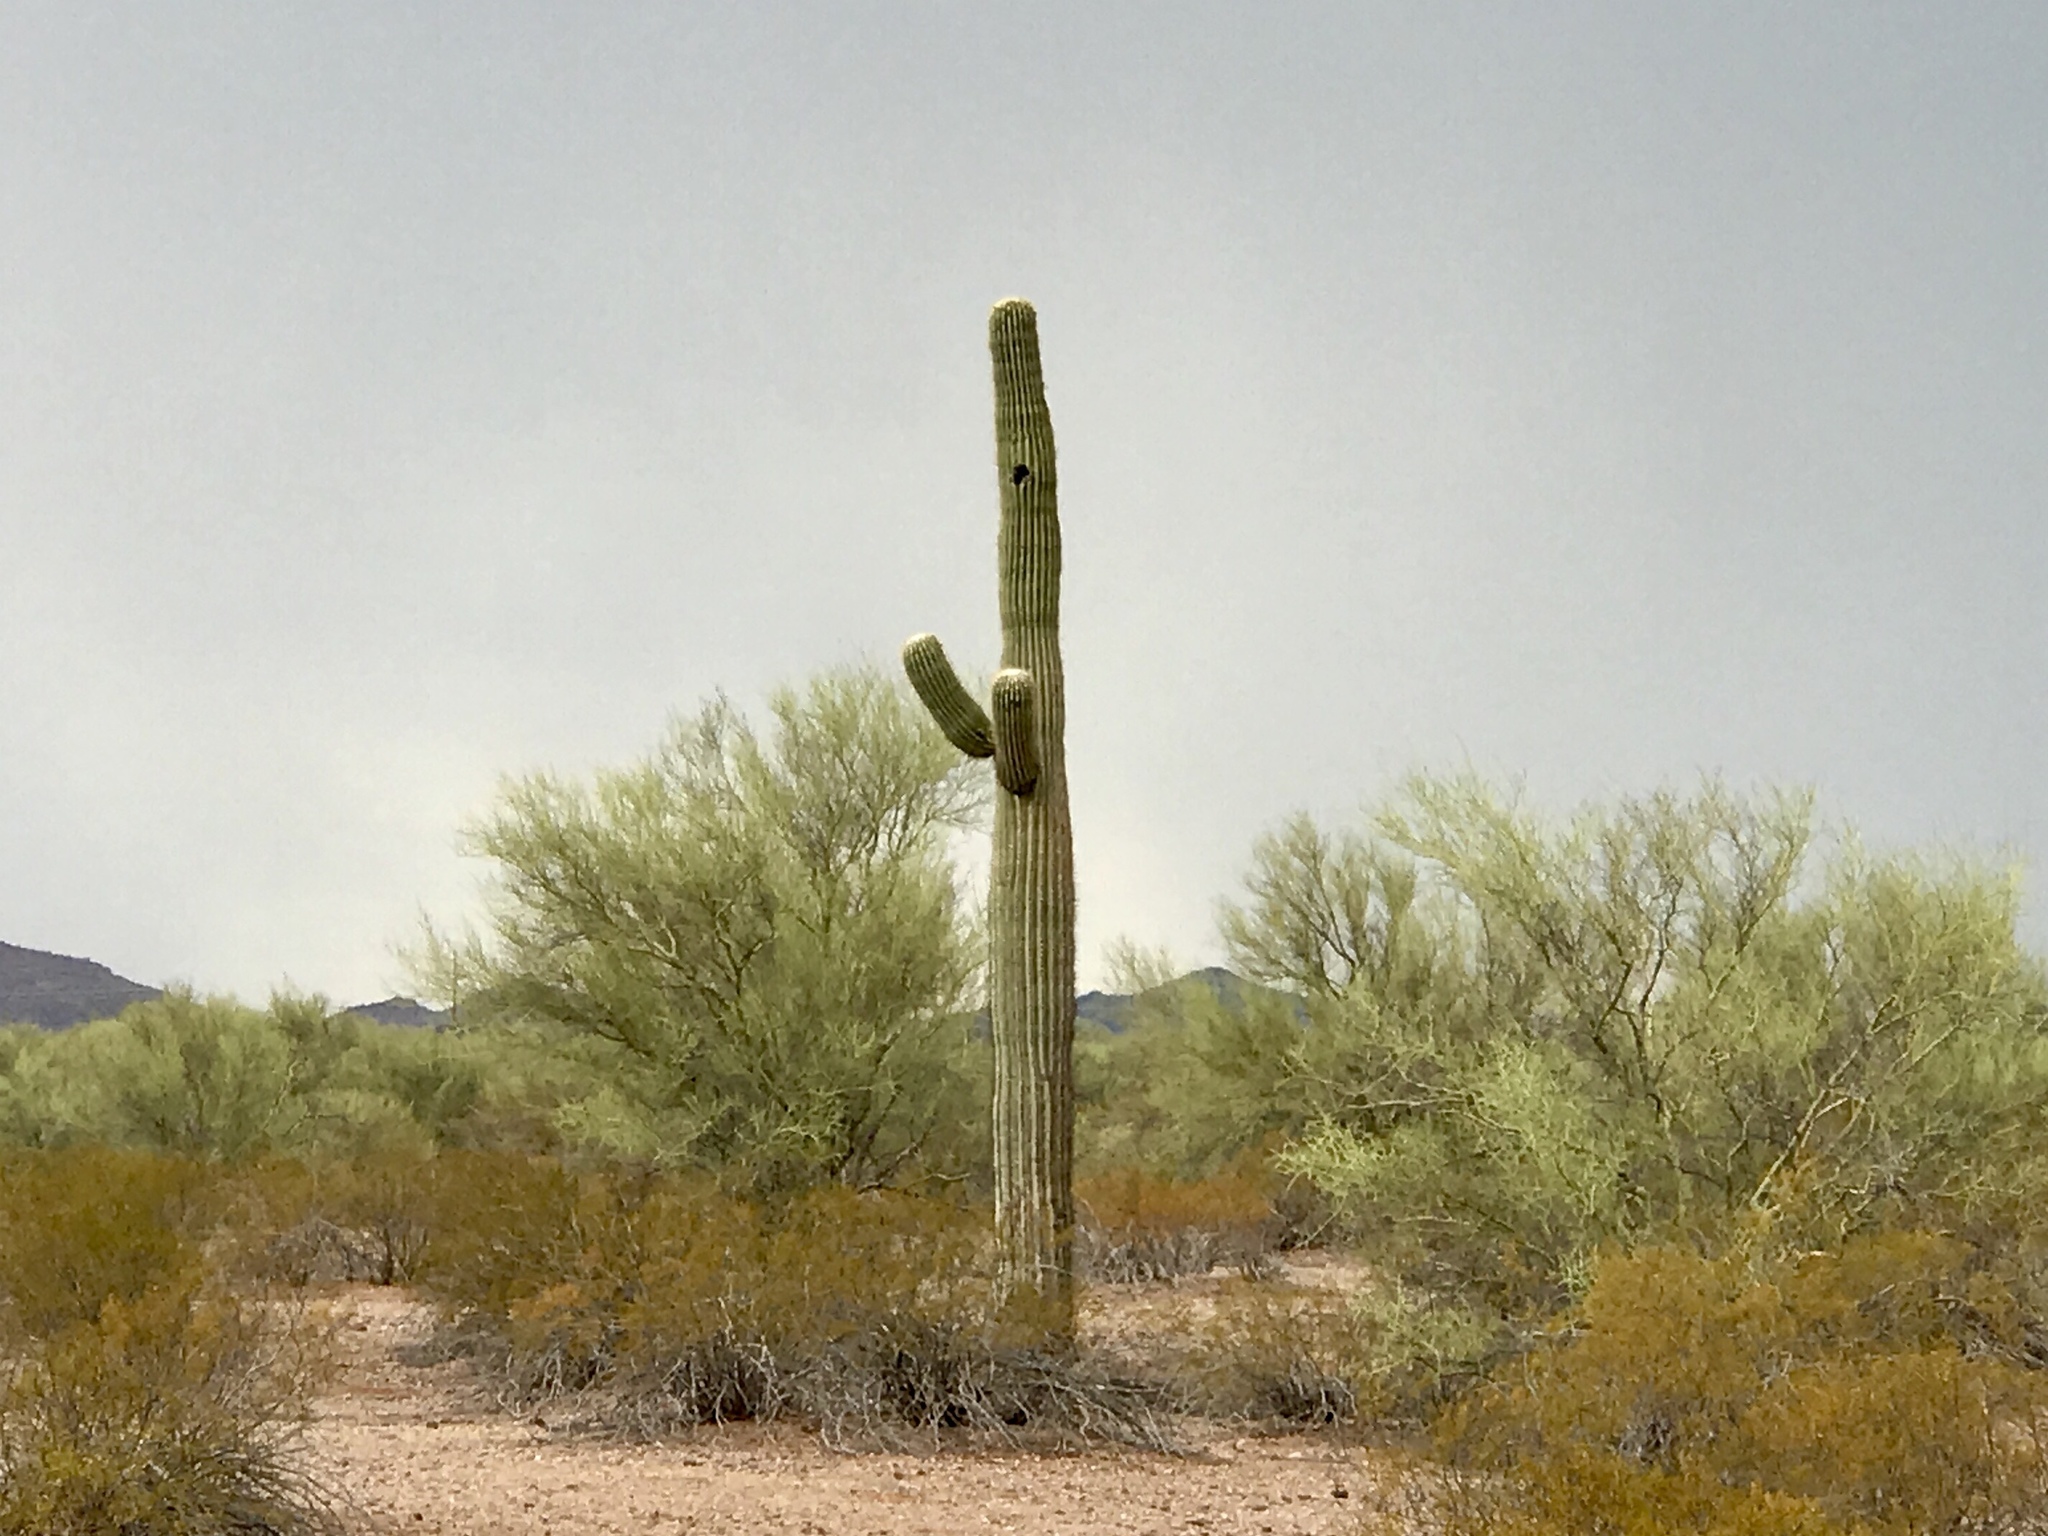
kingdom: Plantae
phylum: Tracheophyta
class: Magnoliopsida
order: Caryophyllales
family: Cactaceae
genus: Carnegiea
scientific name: Carnegiea gigantea
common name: Saguaro
